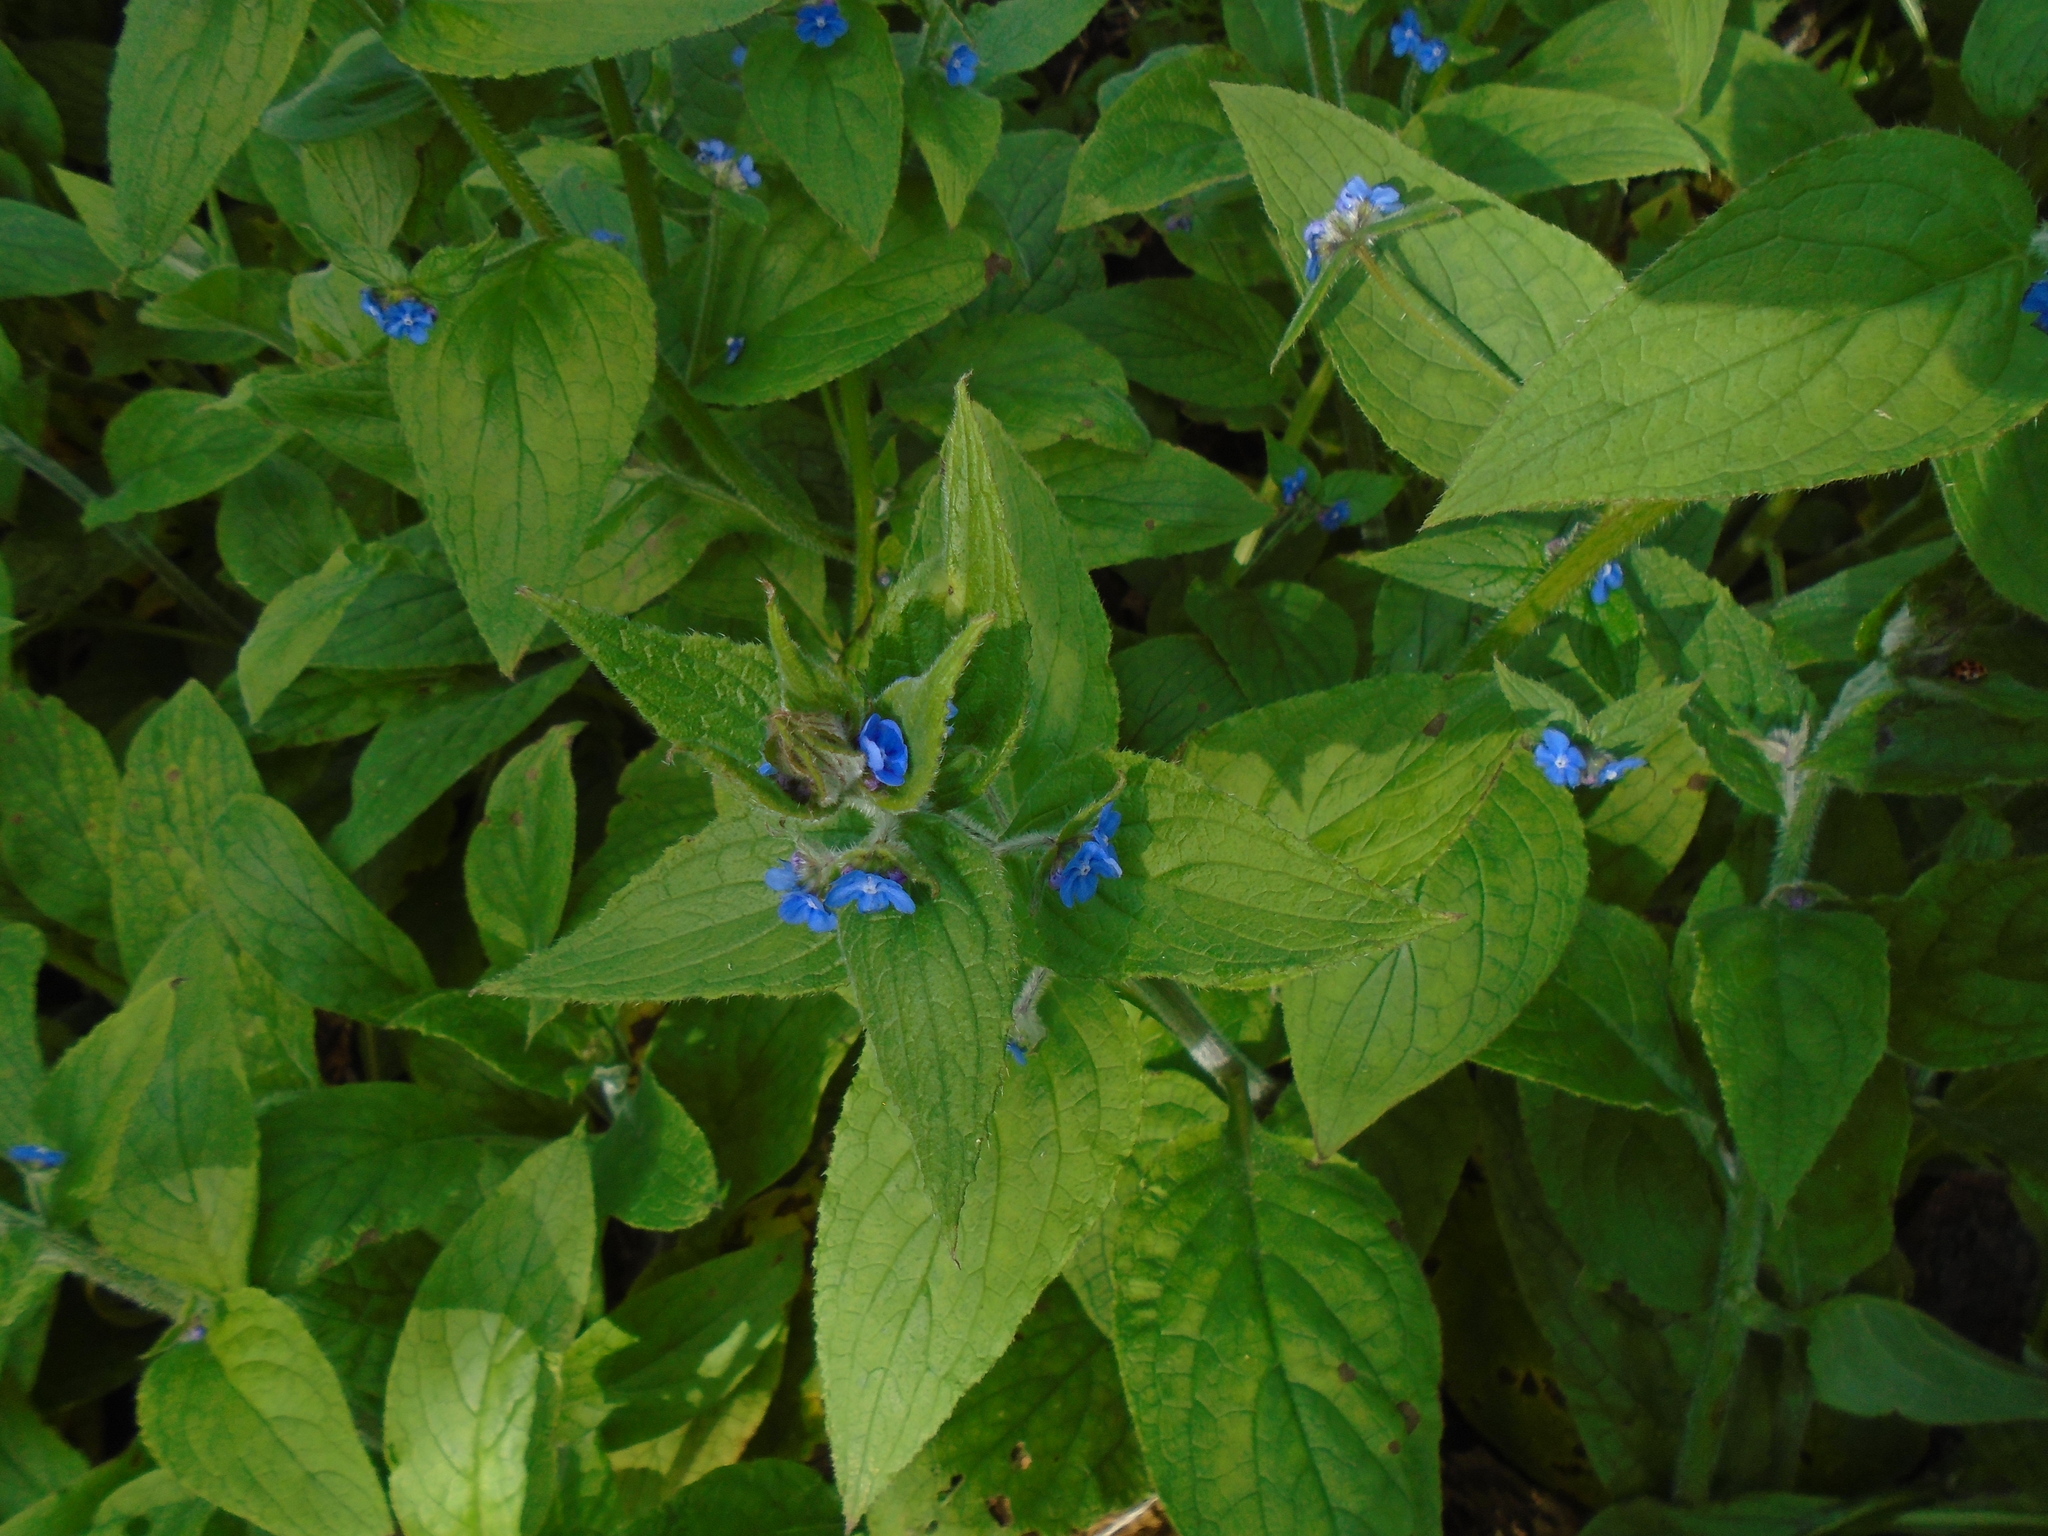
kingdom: Plantae
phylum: Tracheophyta
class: Magnoliopsida
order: Boraginales
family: Boraginaceae
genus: Pentaglottis
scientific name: Pentaglottis sempervirens
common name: Green alkanet
